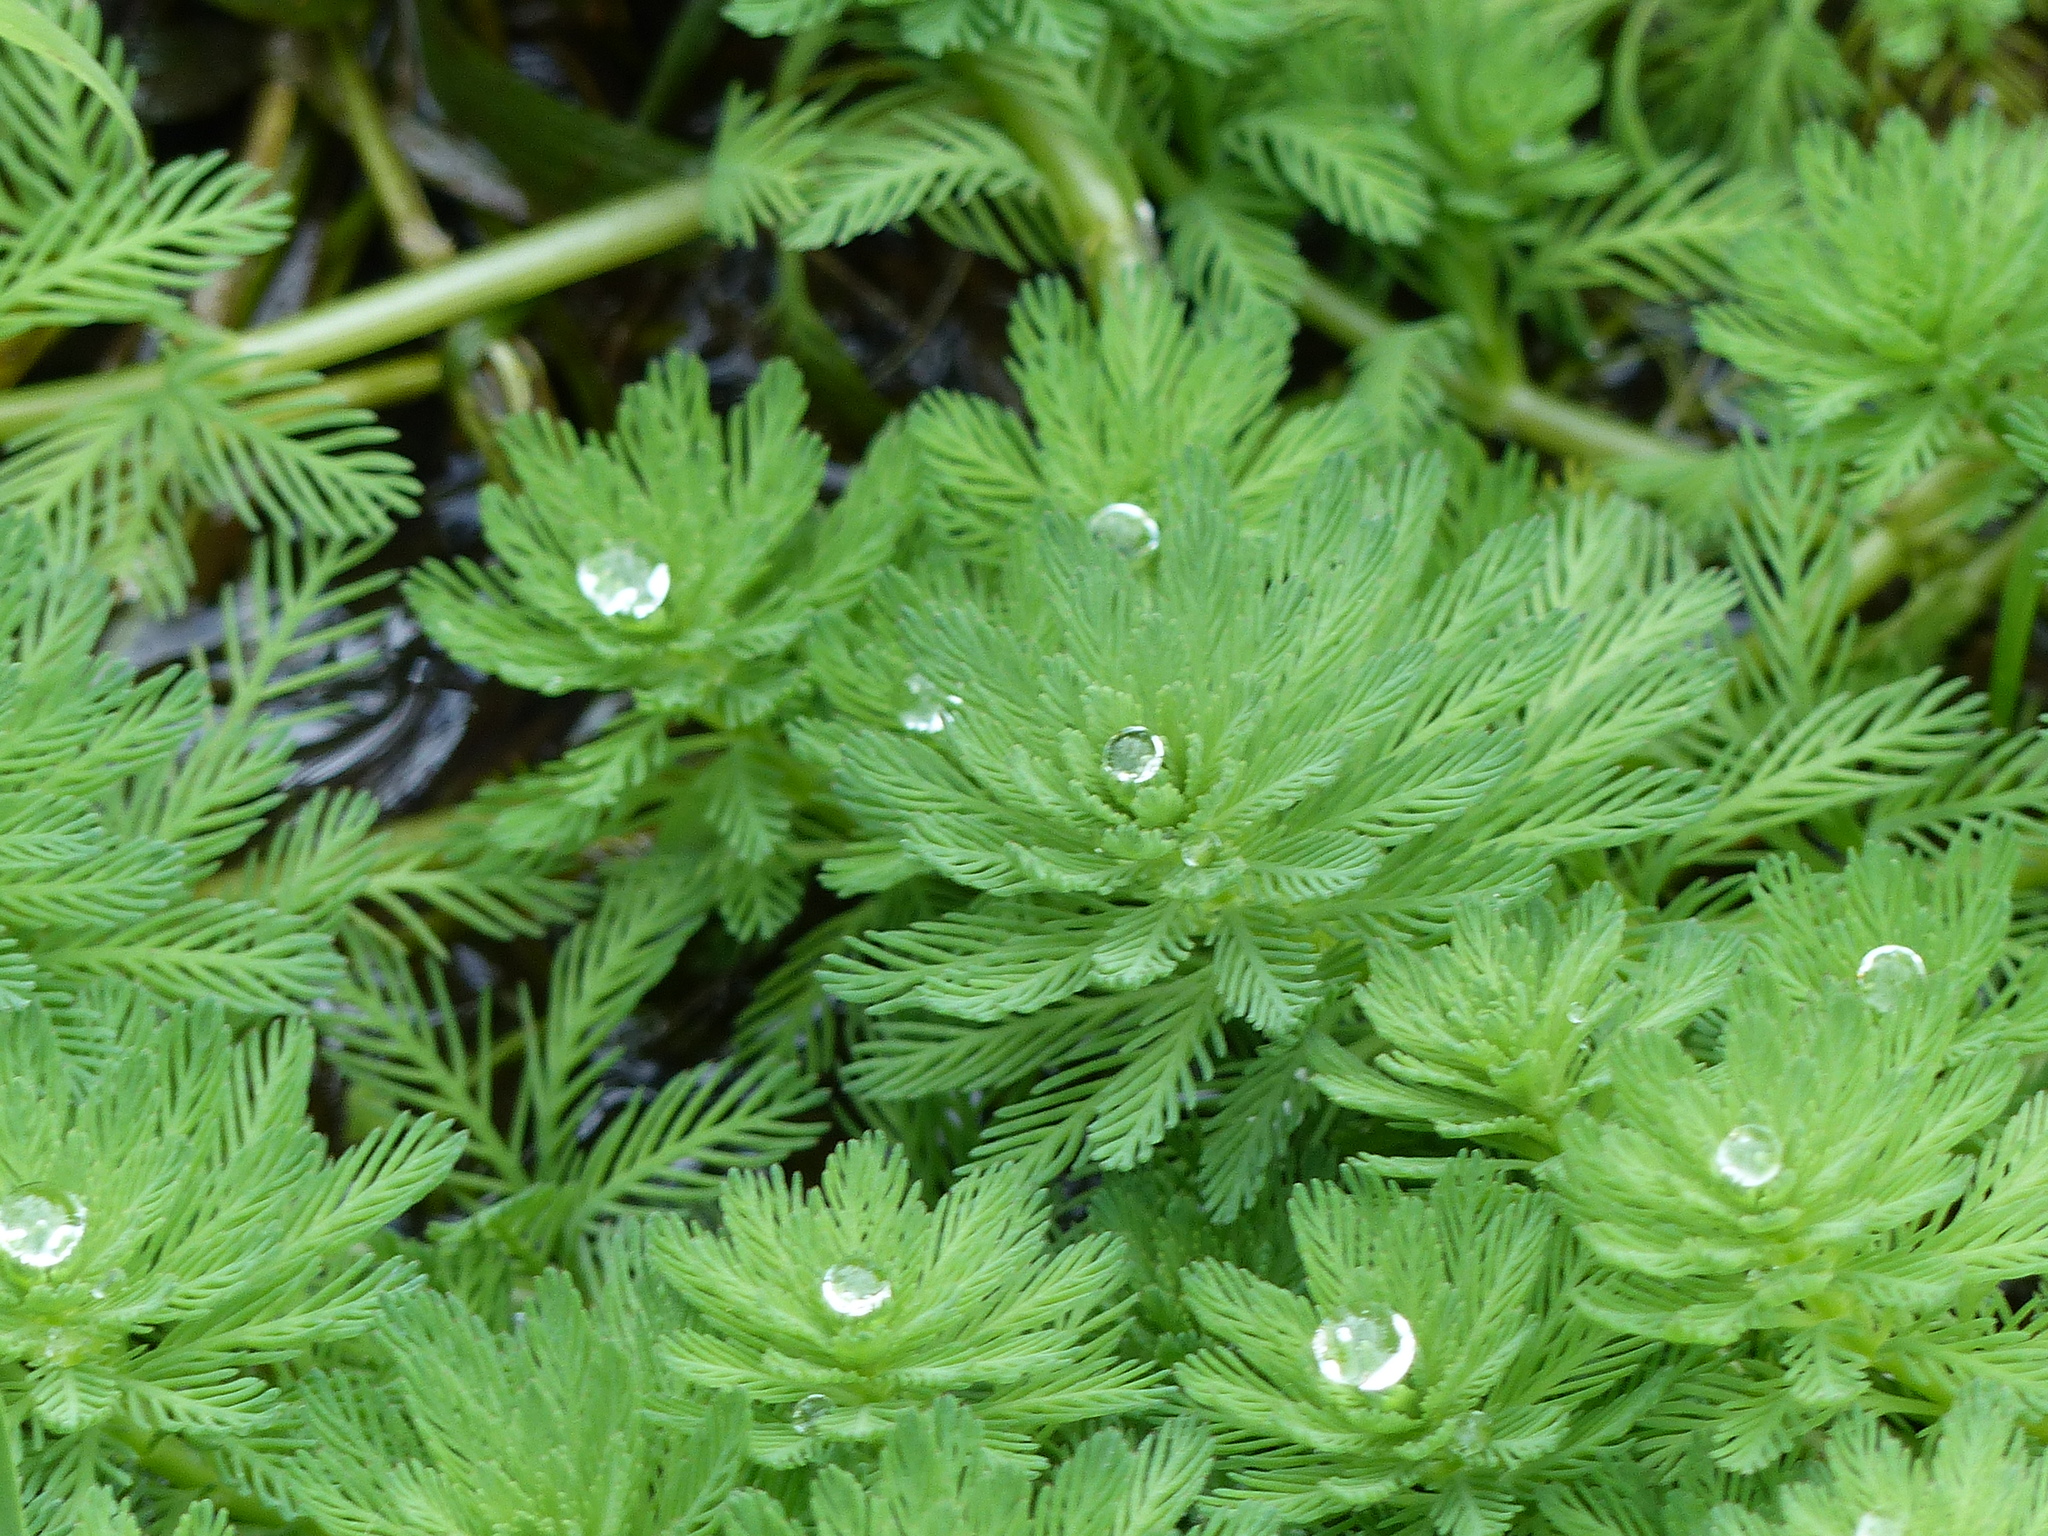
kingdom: Plantae
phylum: Tracheophyta
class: Magnoliopsida
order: Saxifragales
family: Haloragaceae
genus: Myriophyllum
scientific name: Myriophyllum aquaticum
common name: Parrot's feather
